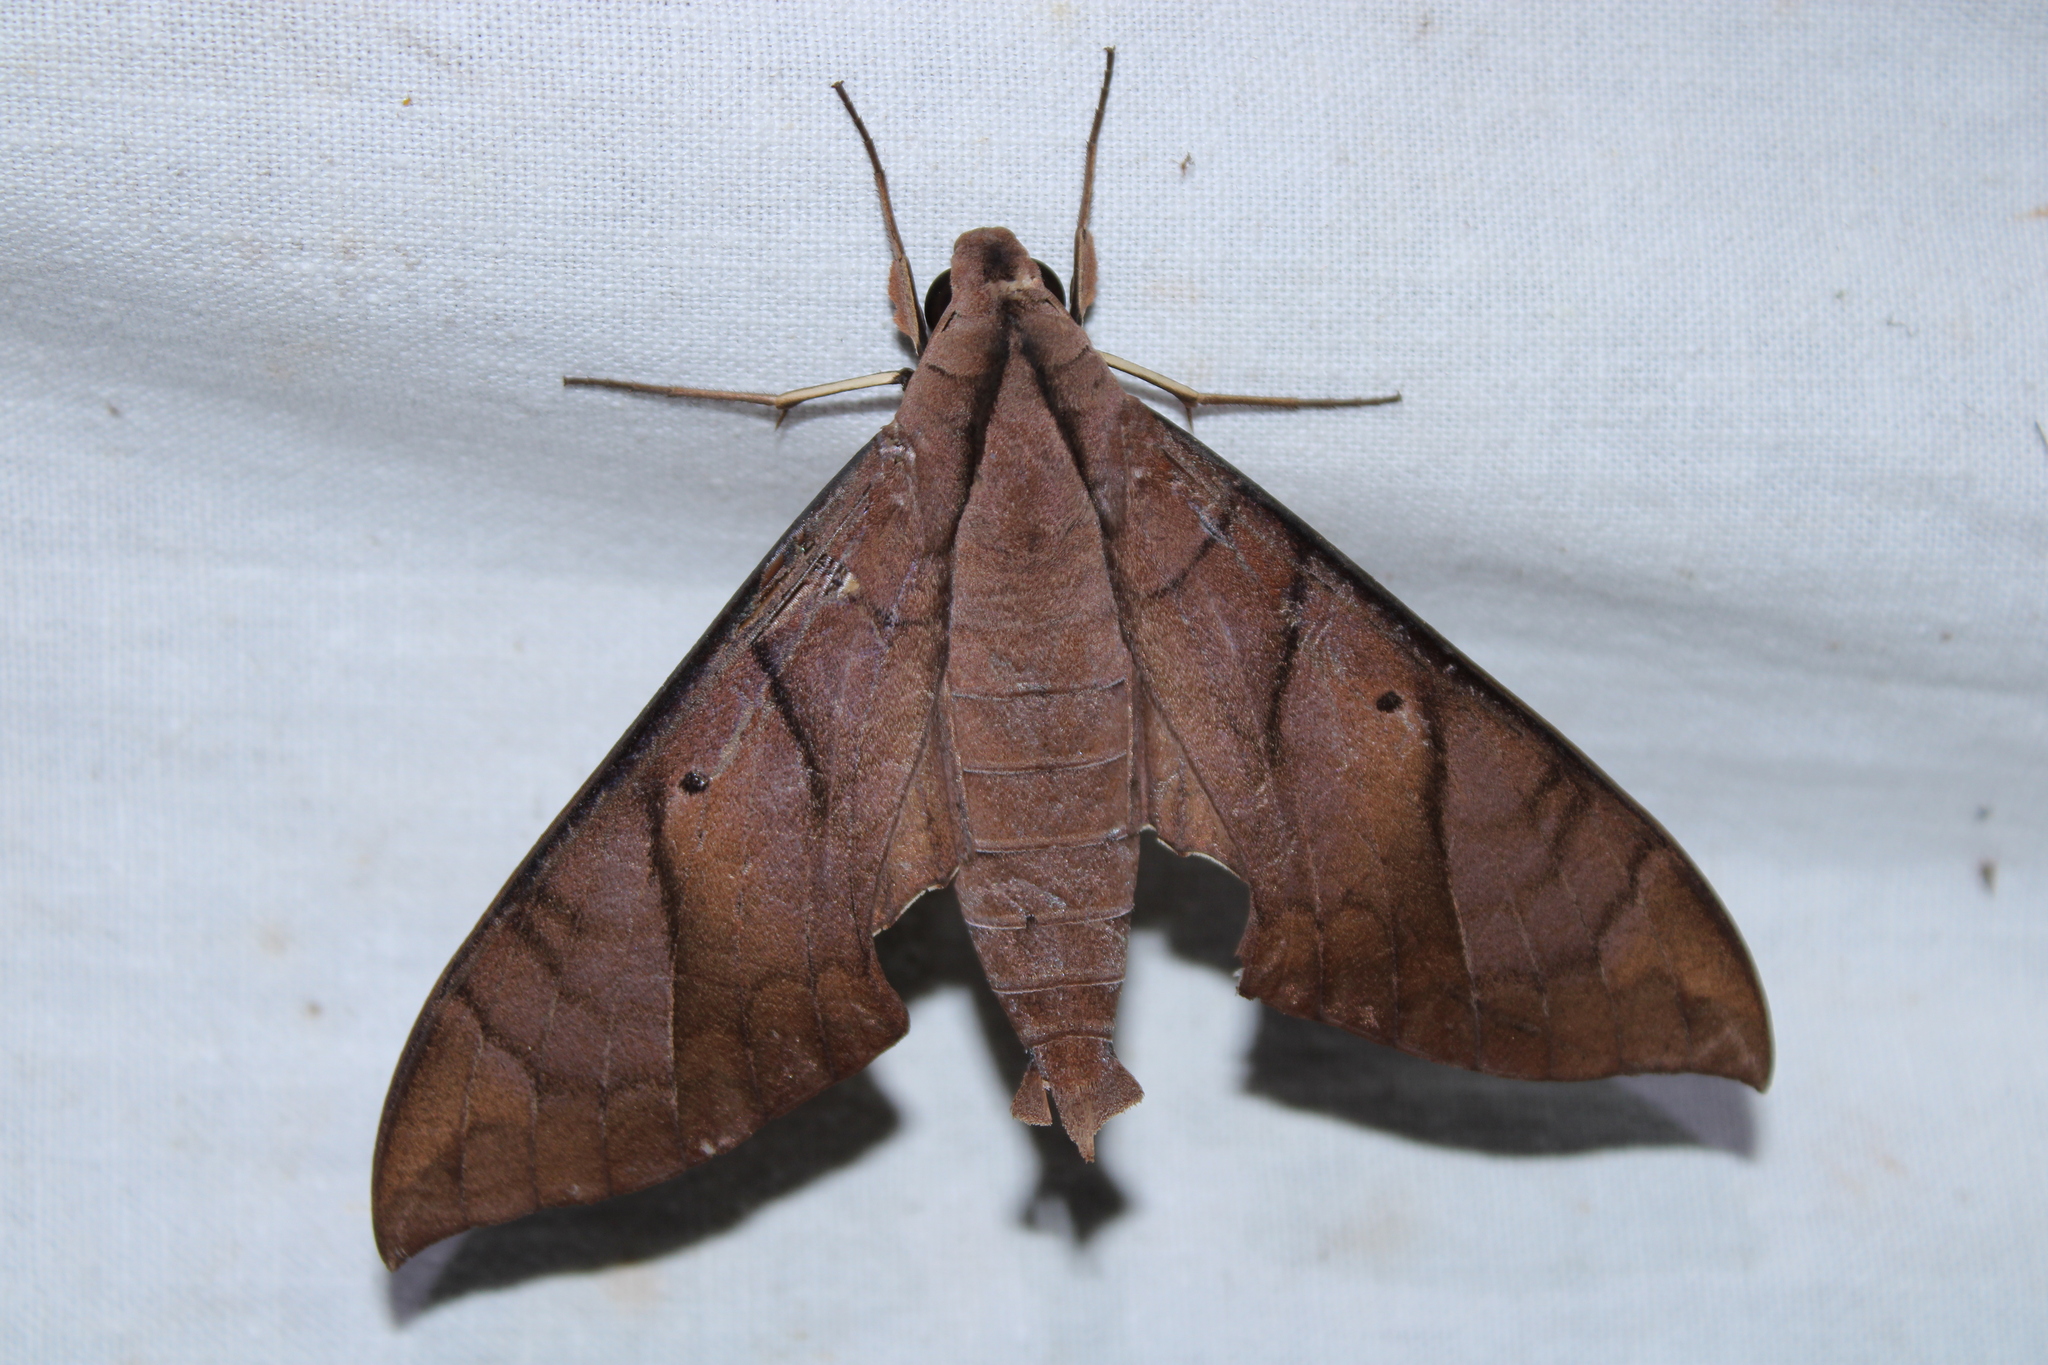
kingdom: Animalia
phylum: Arthropoda
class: Insecta
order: Lepidoptera
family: Sphingidae
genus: Pachylia
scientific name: Pachylia darceta
